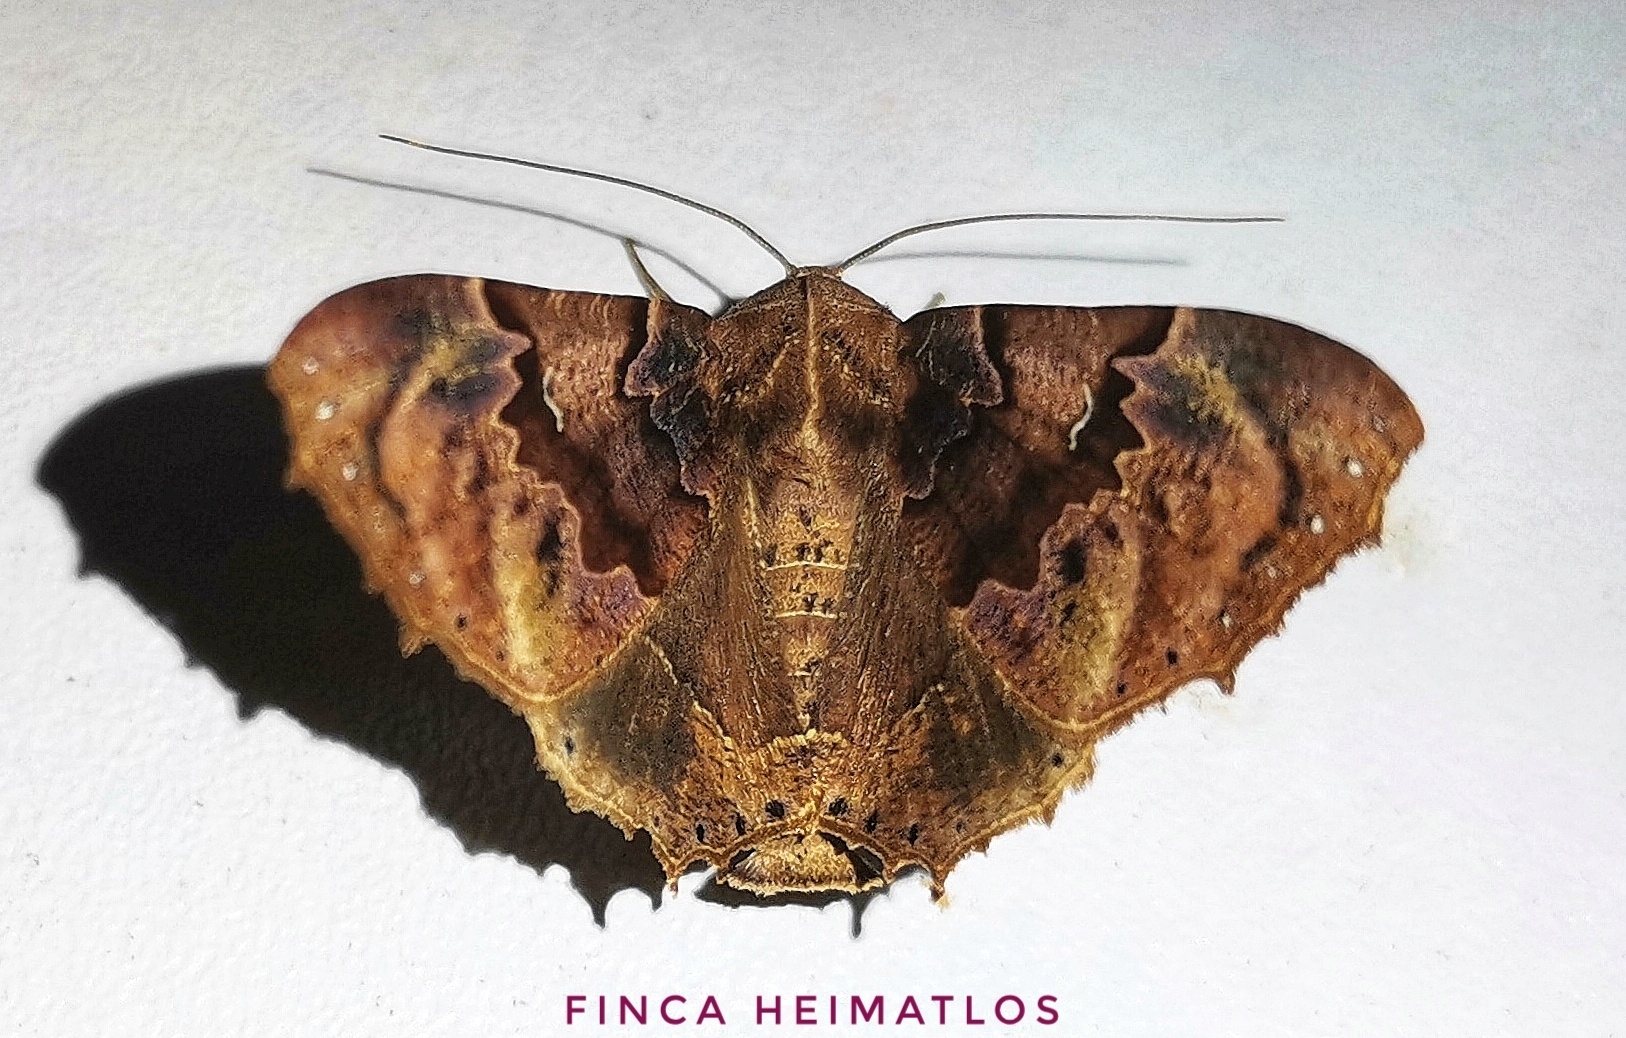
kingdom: Animalia
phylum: Arthropoda
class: Insecta
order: Lepidoptera
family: Geometridae
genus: Pero
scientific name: Pero dularia
